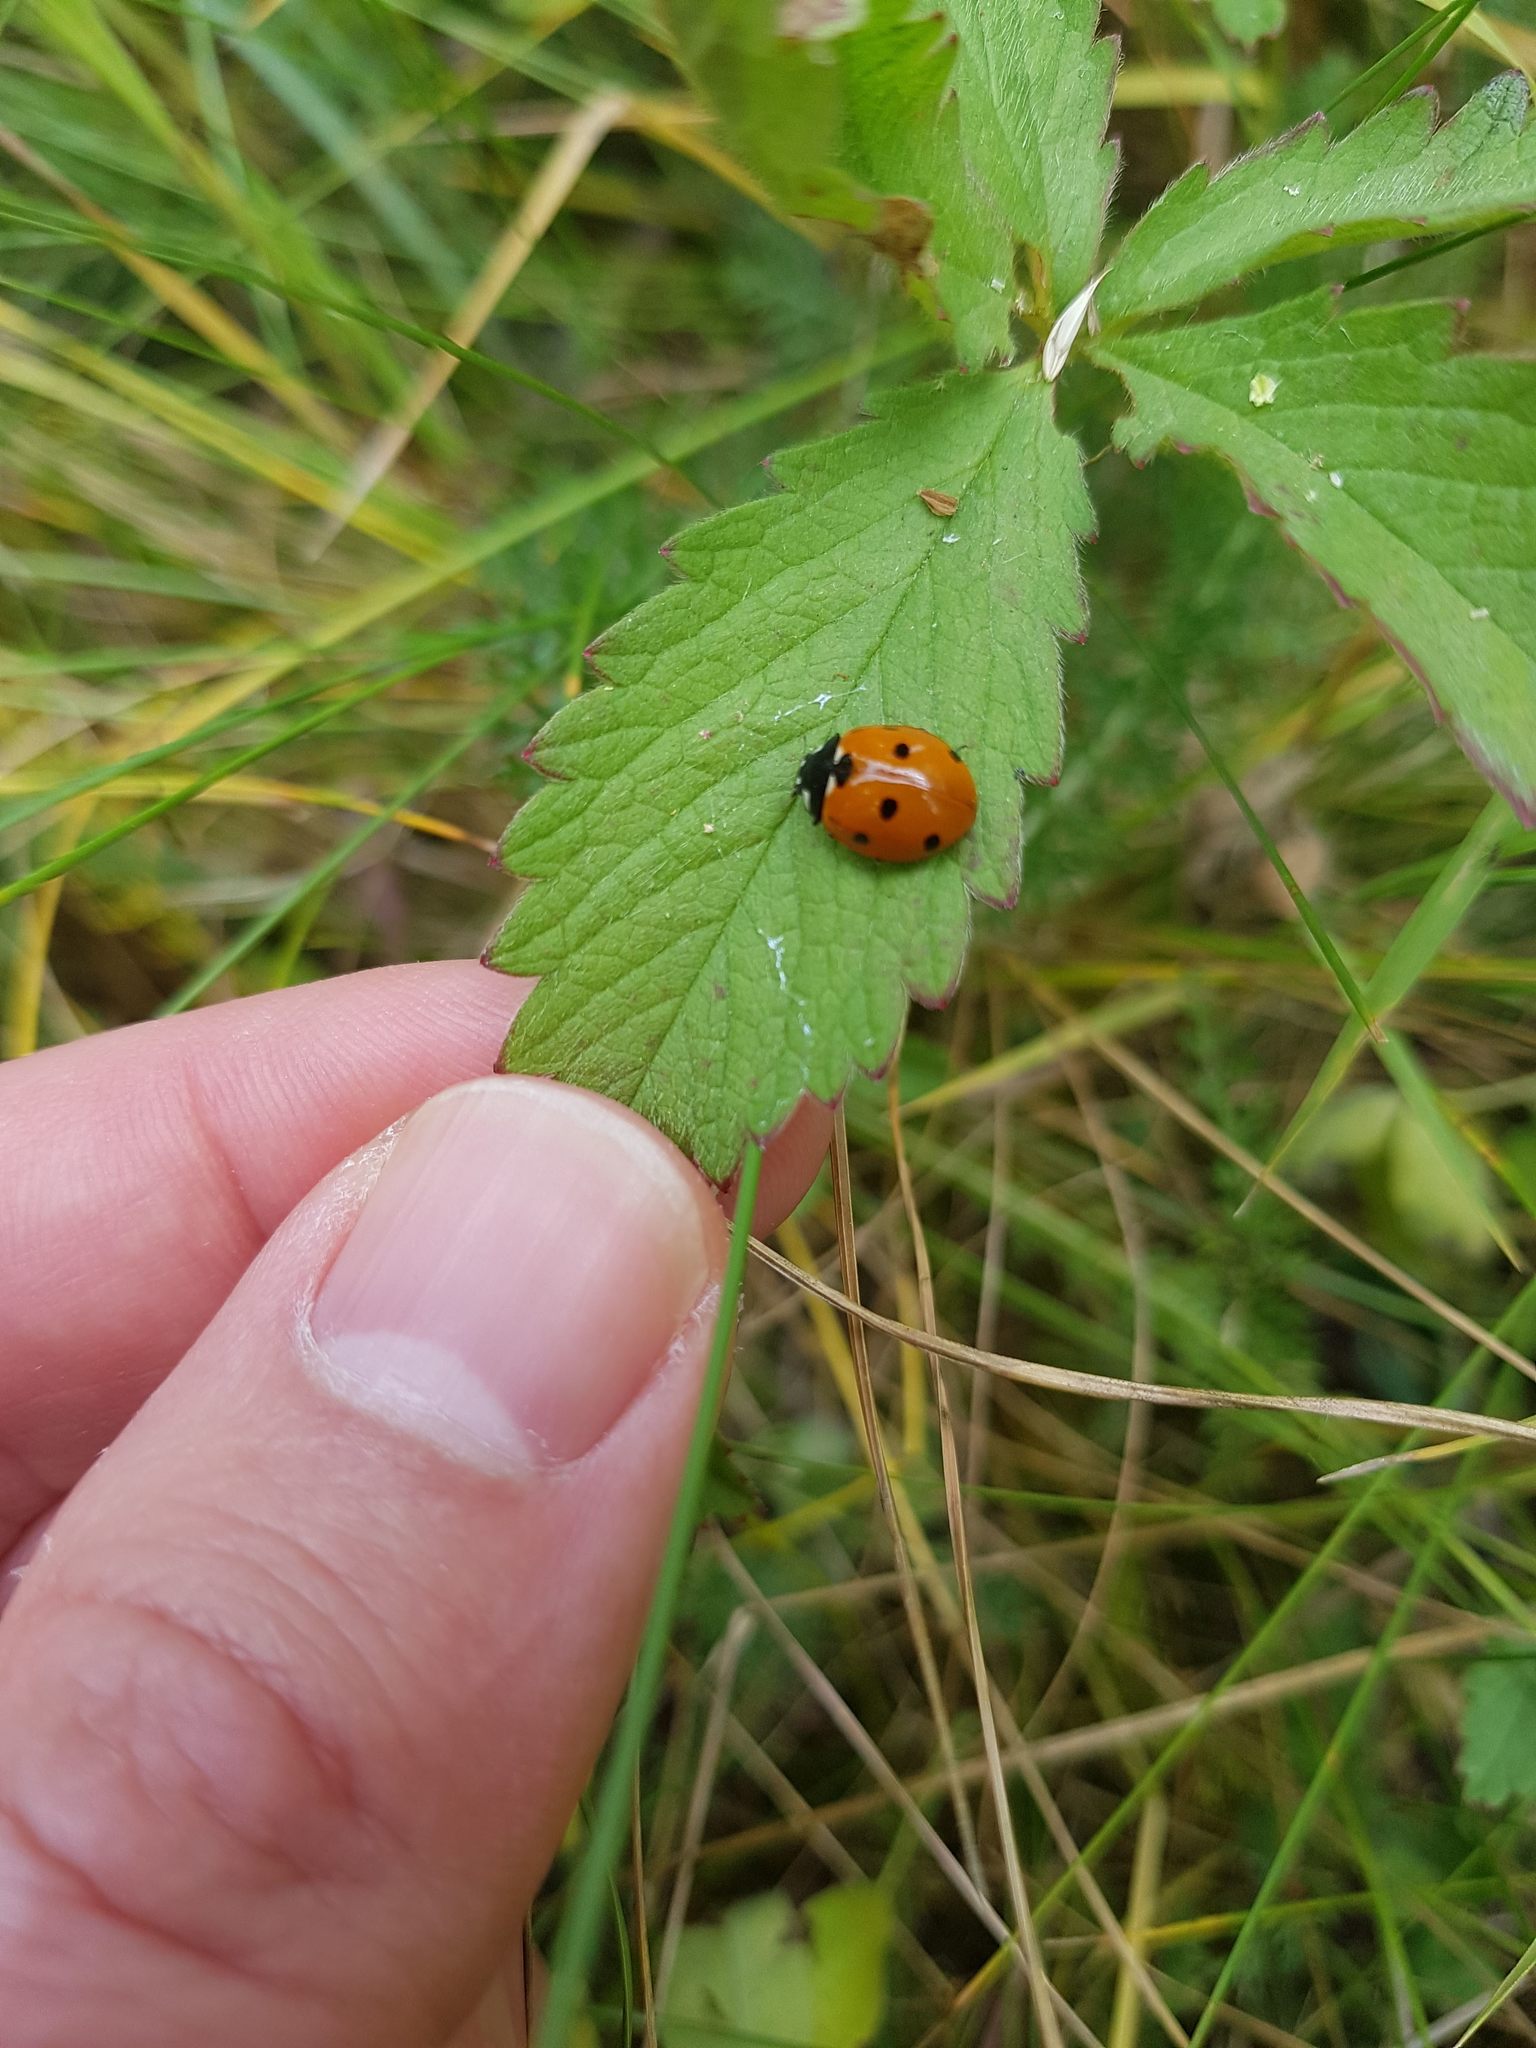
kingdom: Animalia
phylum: Arthropoda
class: Insecta
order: Coleoptera
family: Coccinellidae
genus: Coccinella
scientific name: Coccinella septempunctata
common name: Sevenspotted lady beetle
